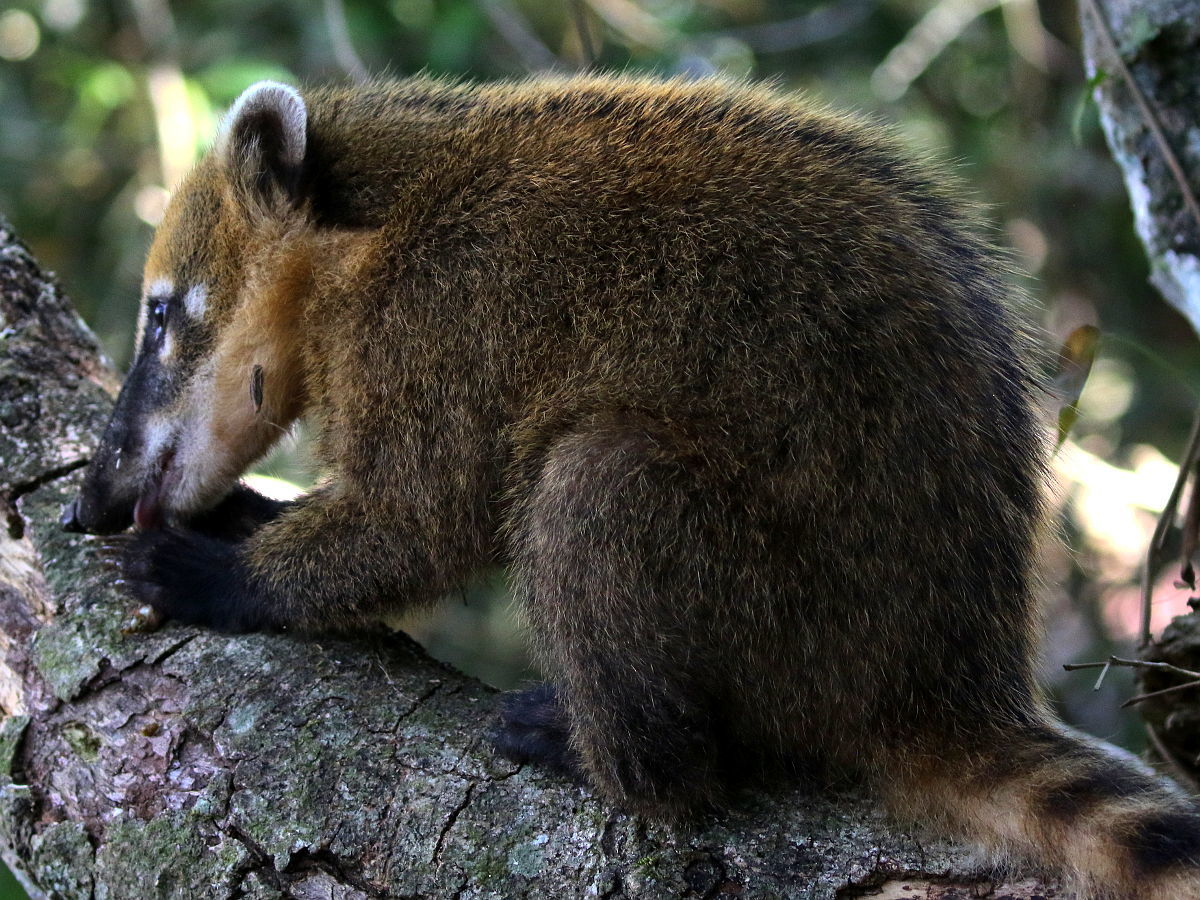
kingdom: Animalia
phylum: Chordata
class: Mammalia
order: Carnivora
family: Procyonidae
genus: Nasua
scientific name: Nasua nasua
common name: South american coati
